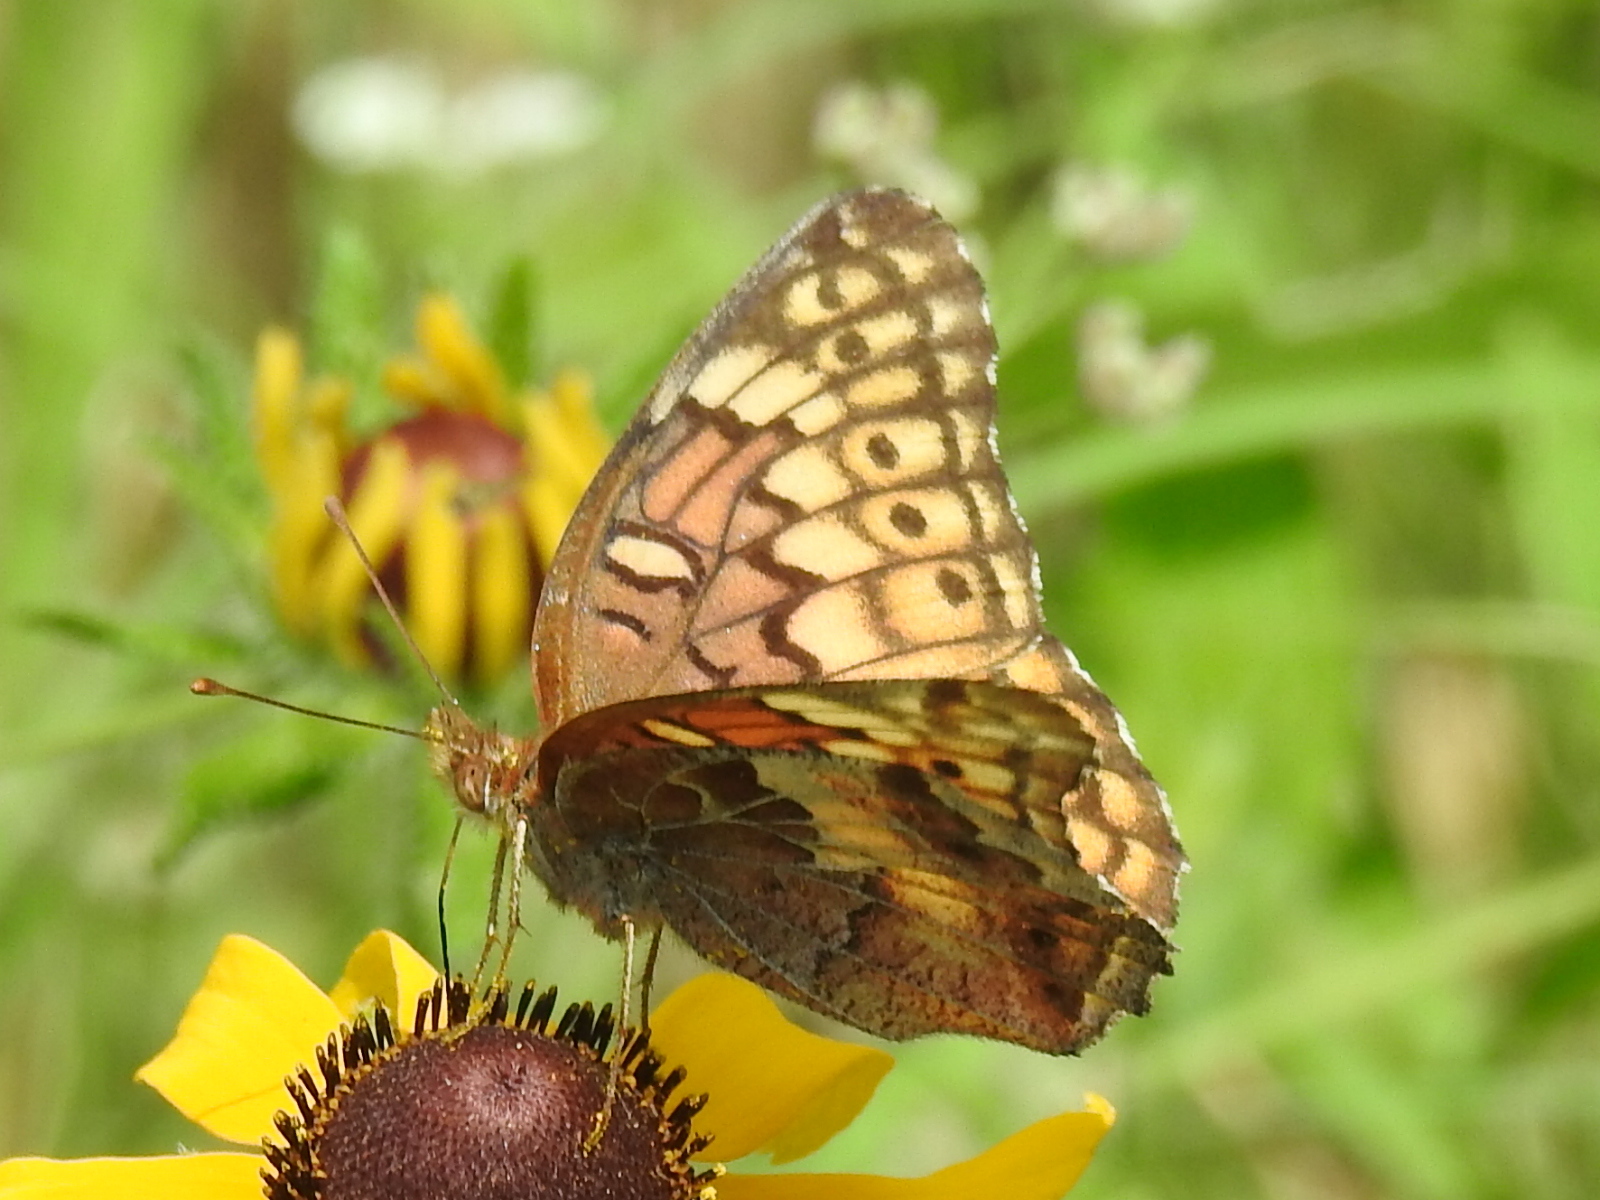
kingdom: Animalia
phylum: Arthropoda
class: Insecta
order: Lepidoptera
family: Nymphalidae
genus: Euptoieta
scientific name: Euptoieta claudia
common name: Variegated fritillary
